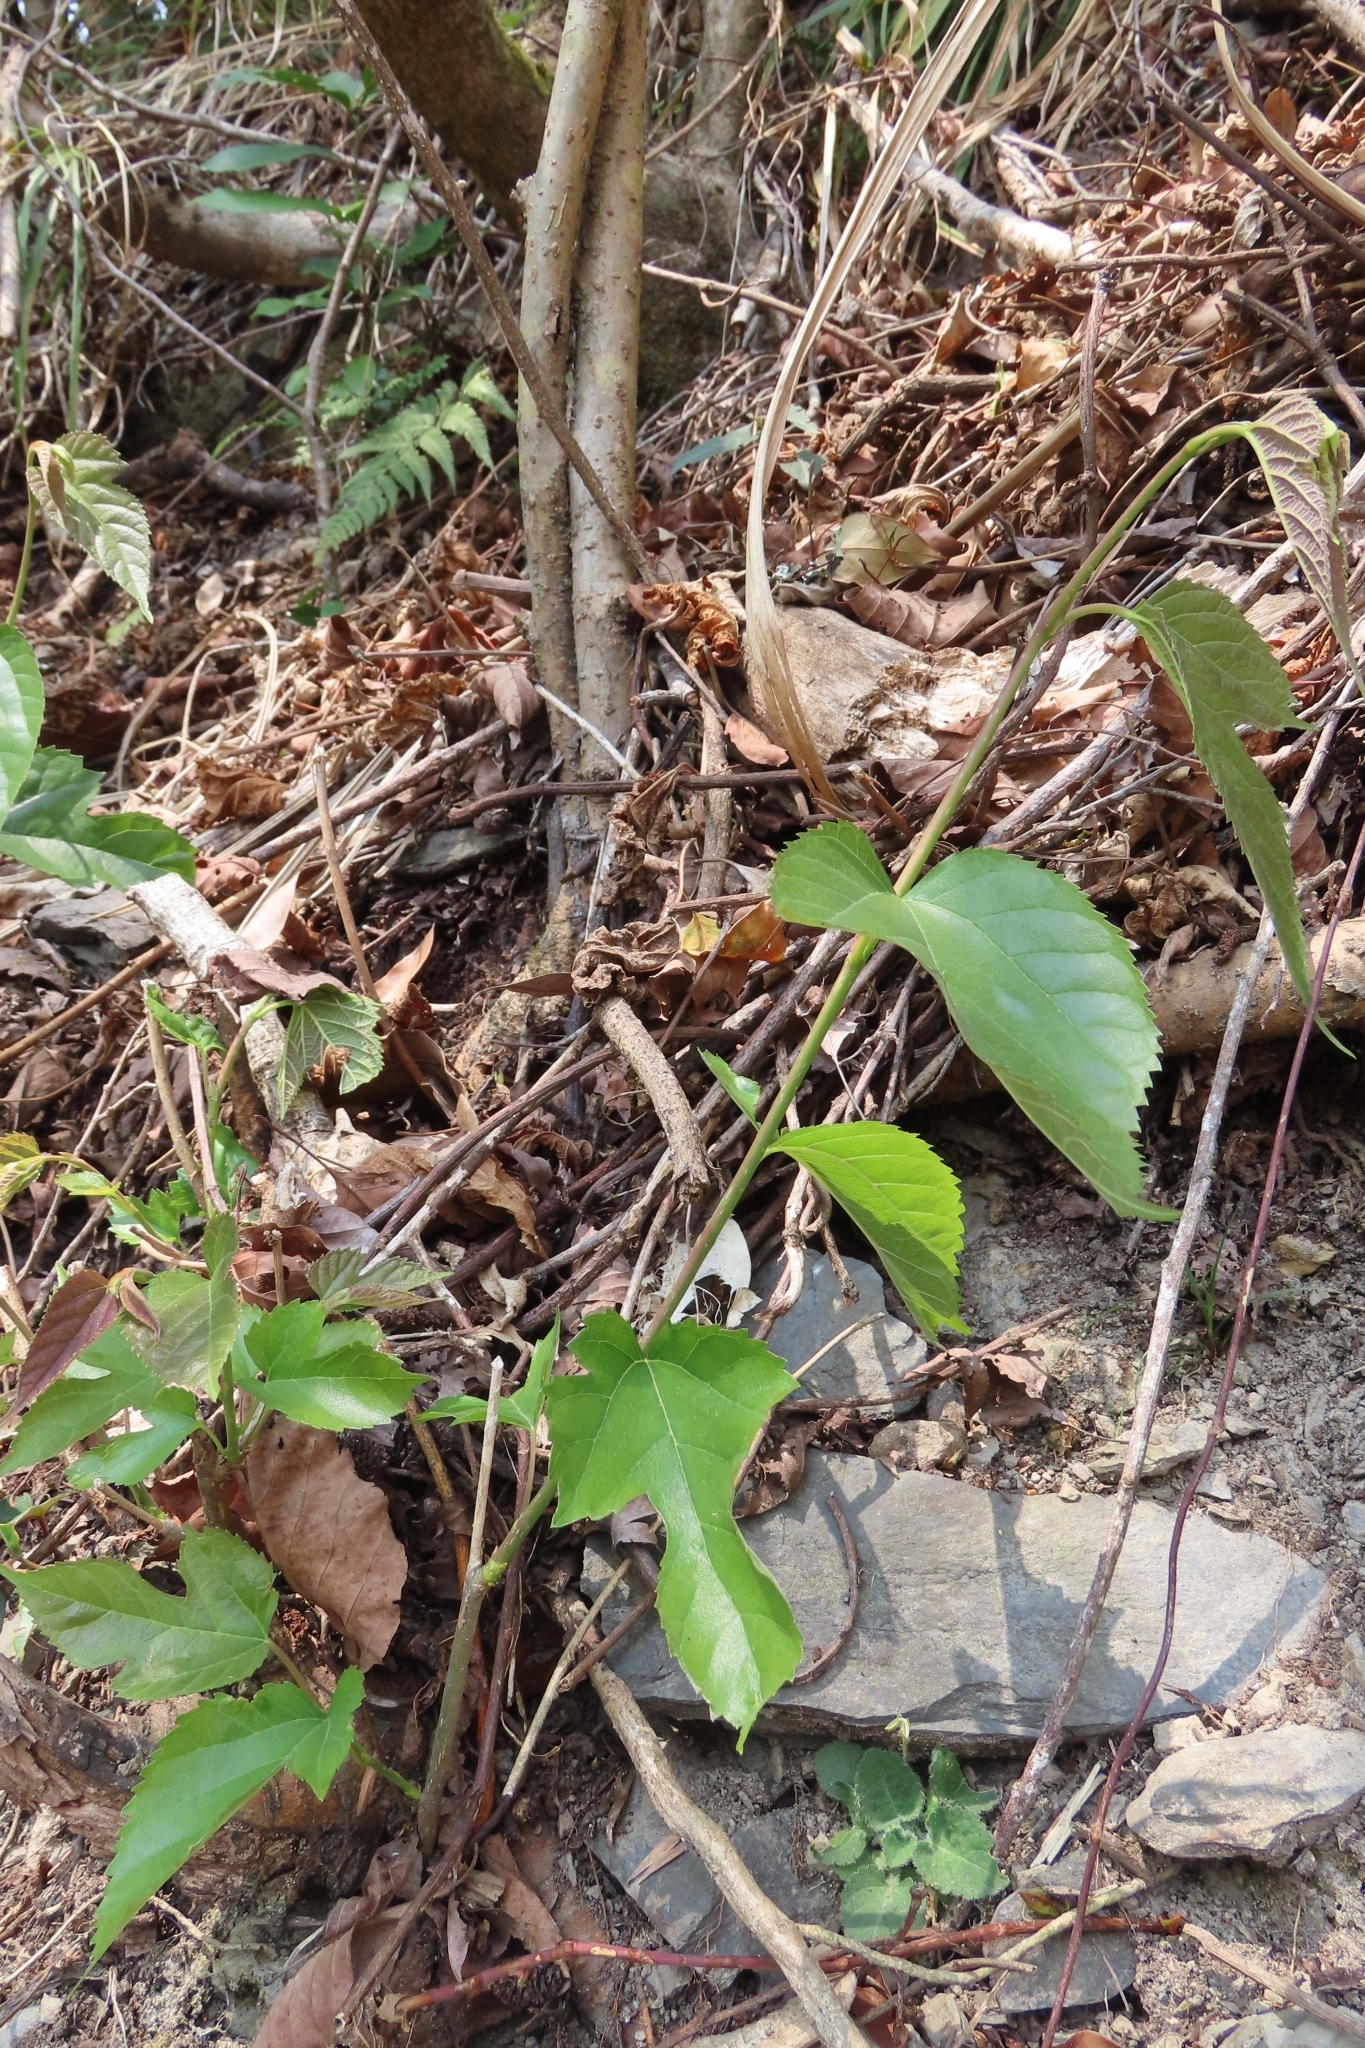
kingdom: Plantae
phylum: Tracheophyta
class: Magnoliopsida
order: Rosales
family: Moraceae
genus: Morus
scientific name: Morus indica
